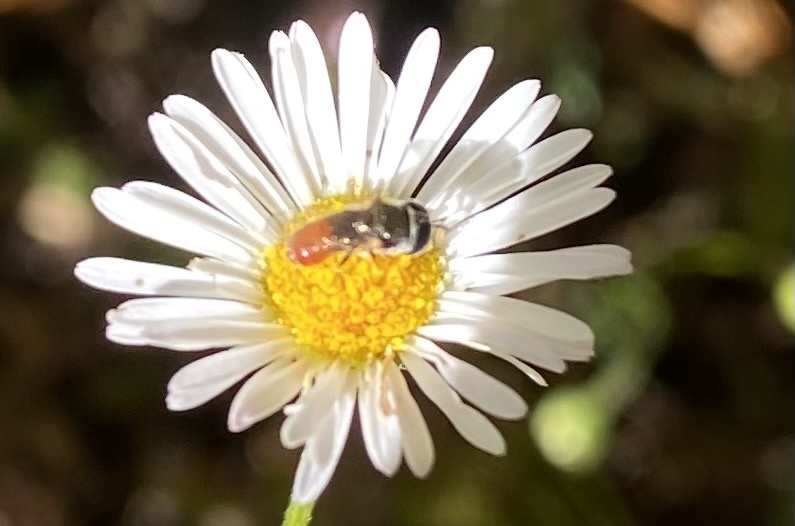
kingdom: Animalia
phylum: Arthropoda
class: Insecta
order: Diptera
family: Syrphidae
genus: Paragus
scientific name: Paragus haemorrhous
